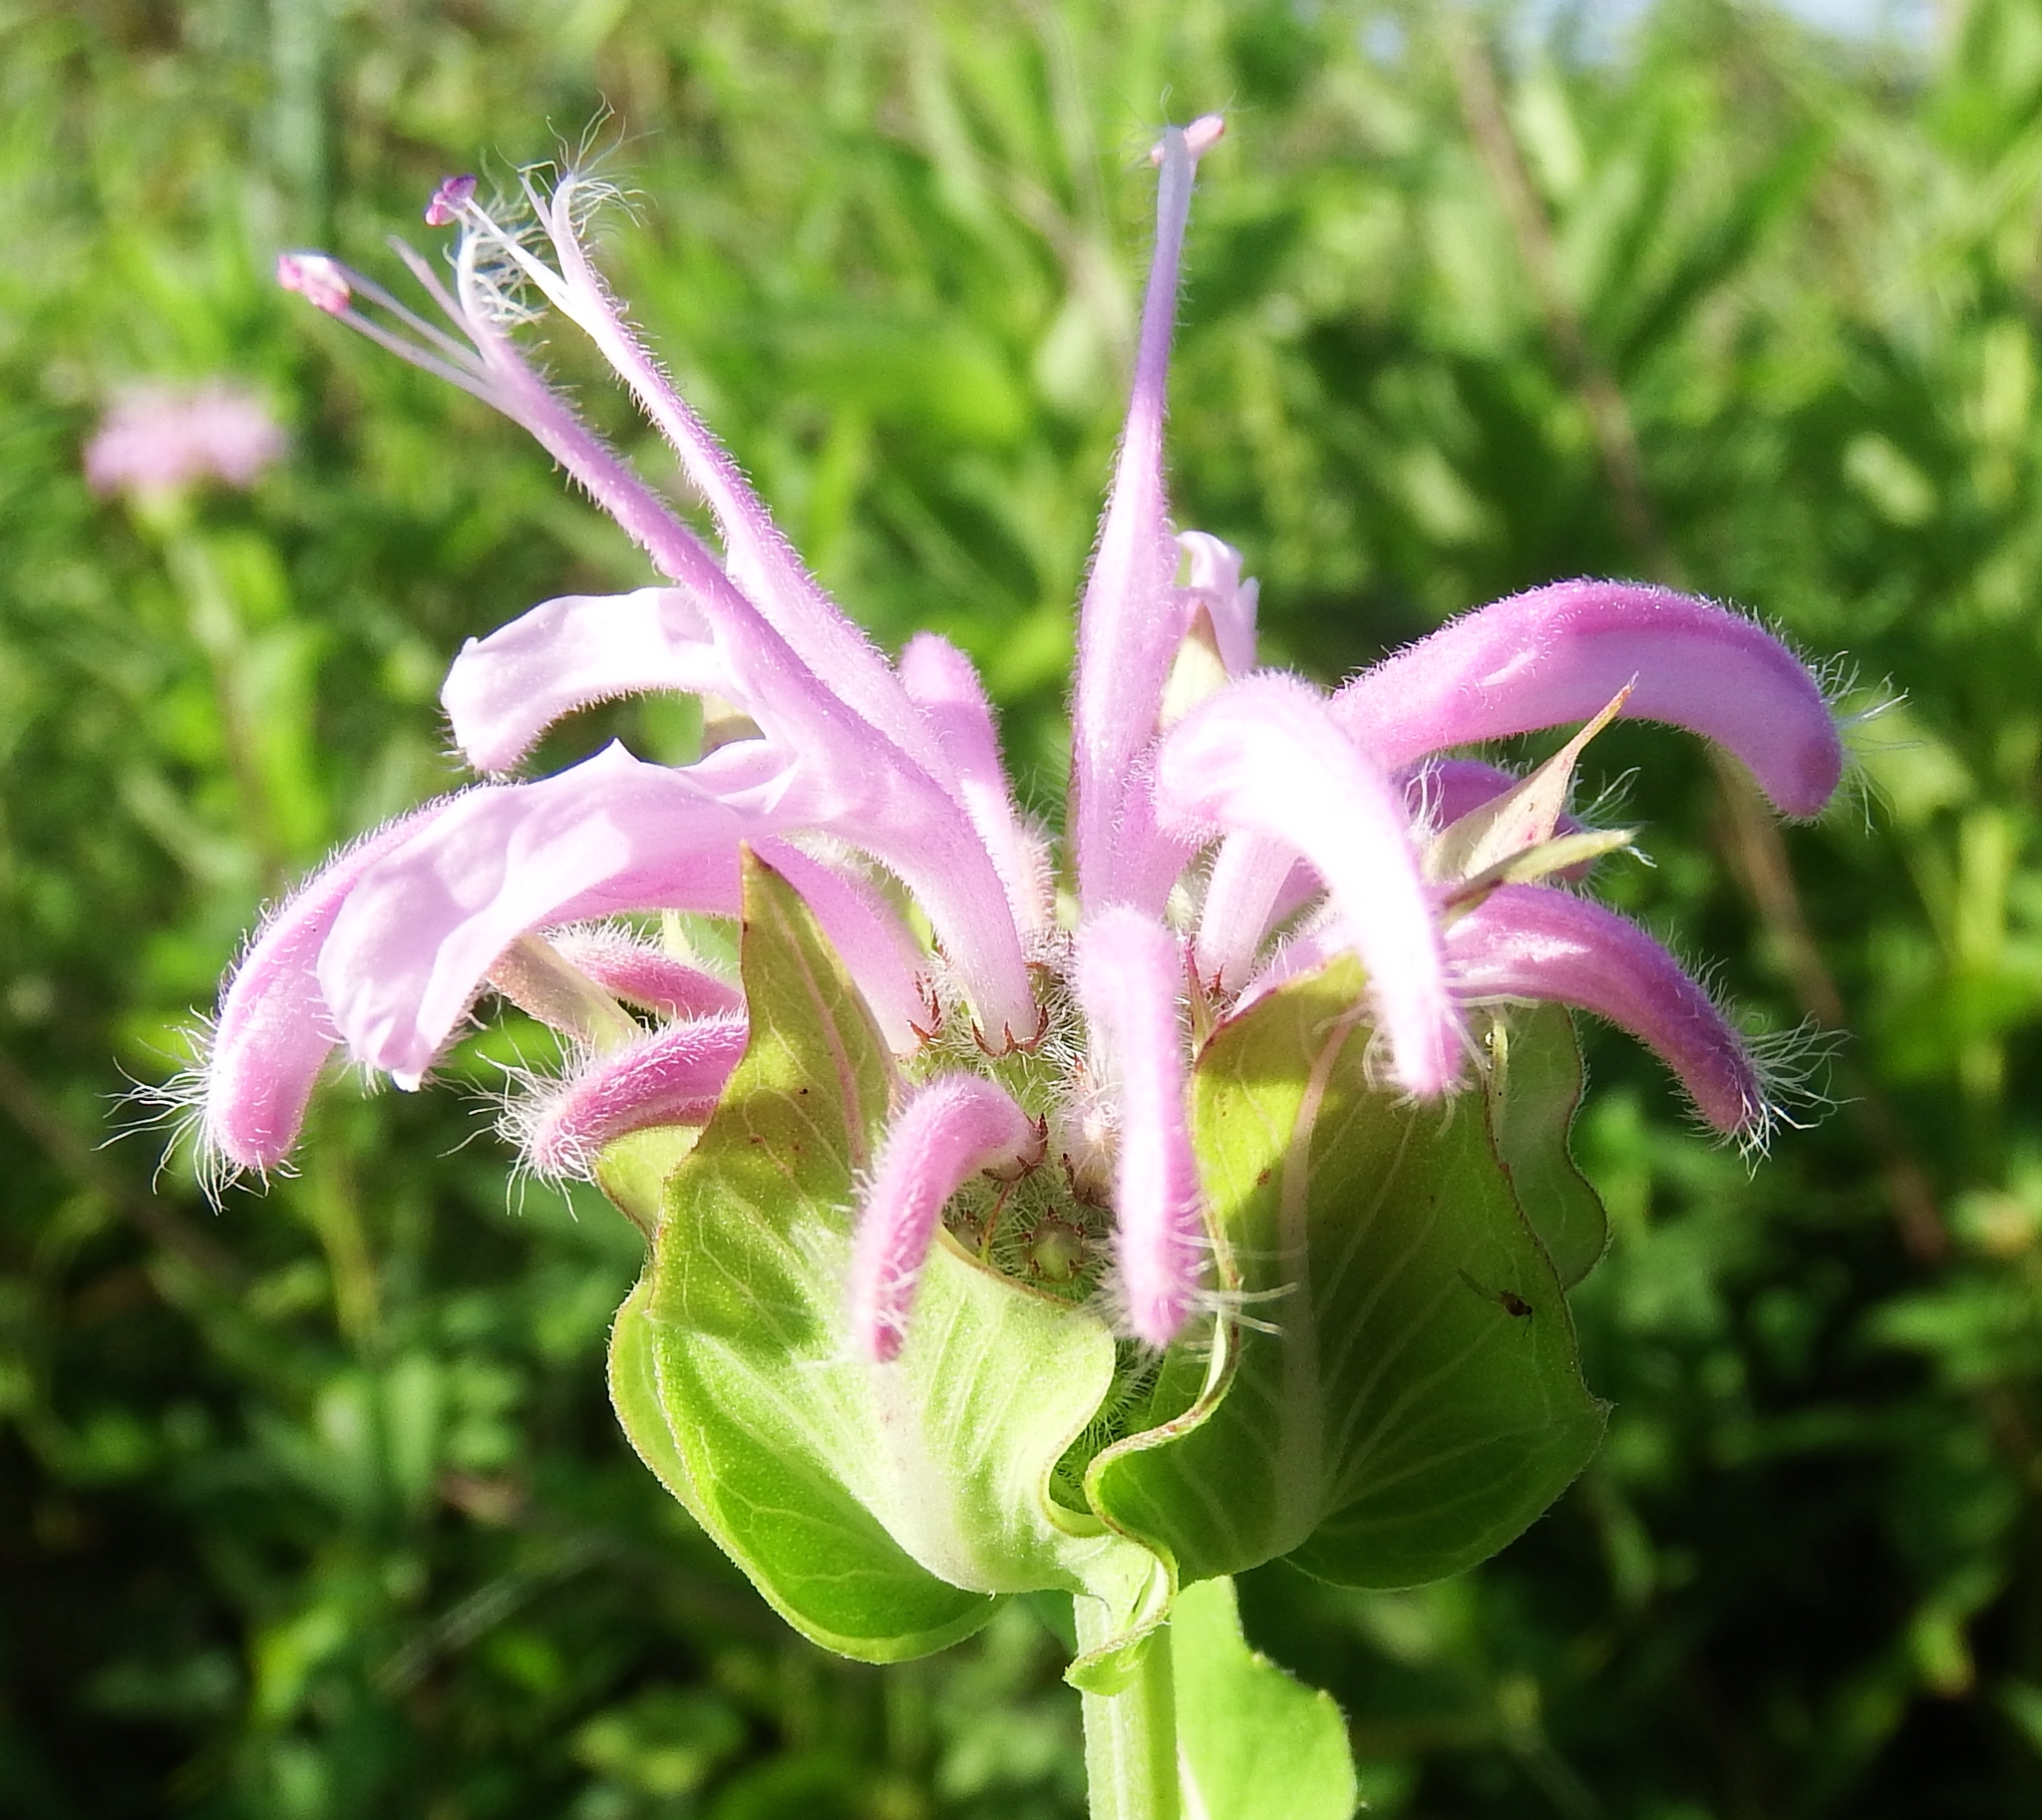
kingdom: Plantae
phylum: Tracheophyta
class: Magnoliopsida
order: Lamiales
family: Lamiaceae
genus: Monarda
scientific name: Monarda fistulosa
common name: Purple beebalm
